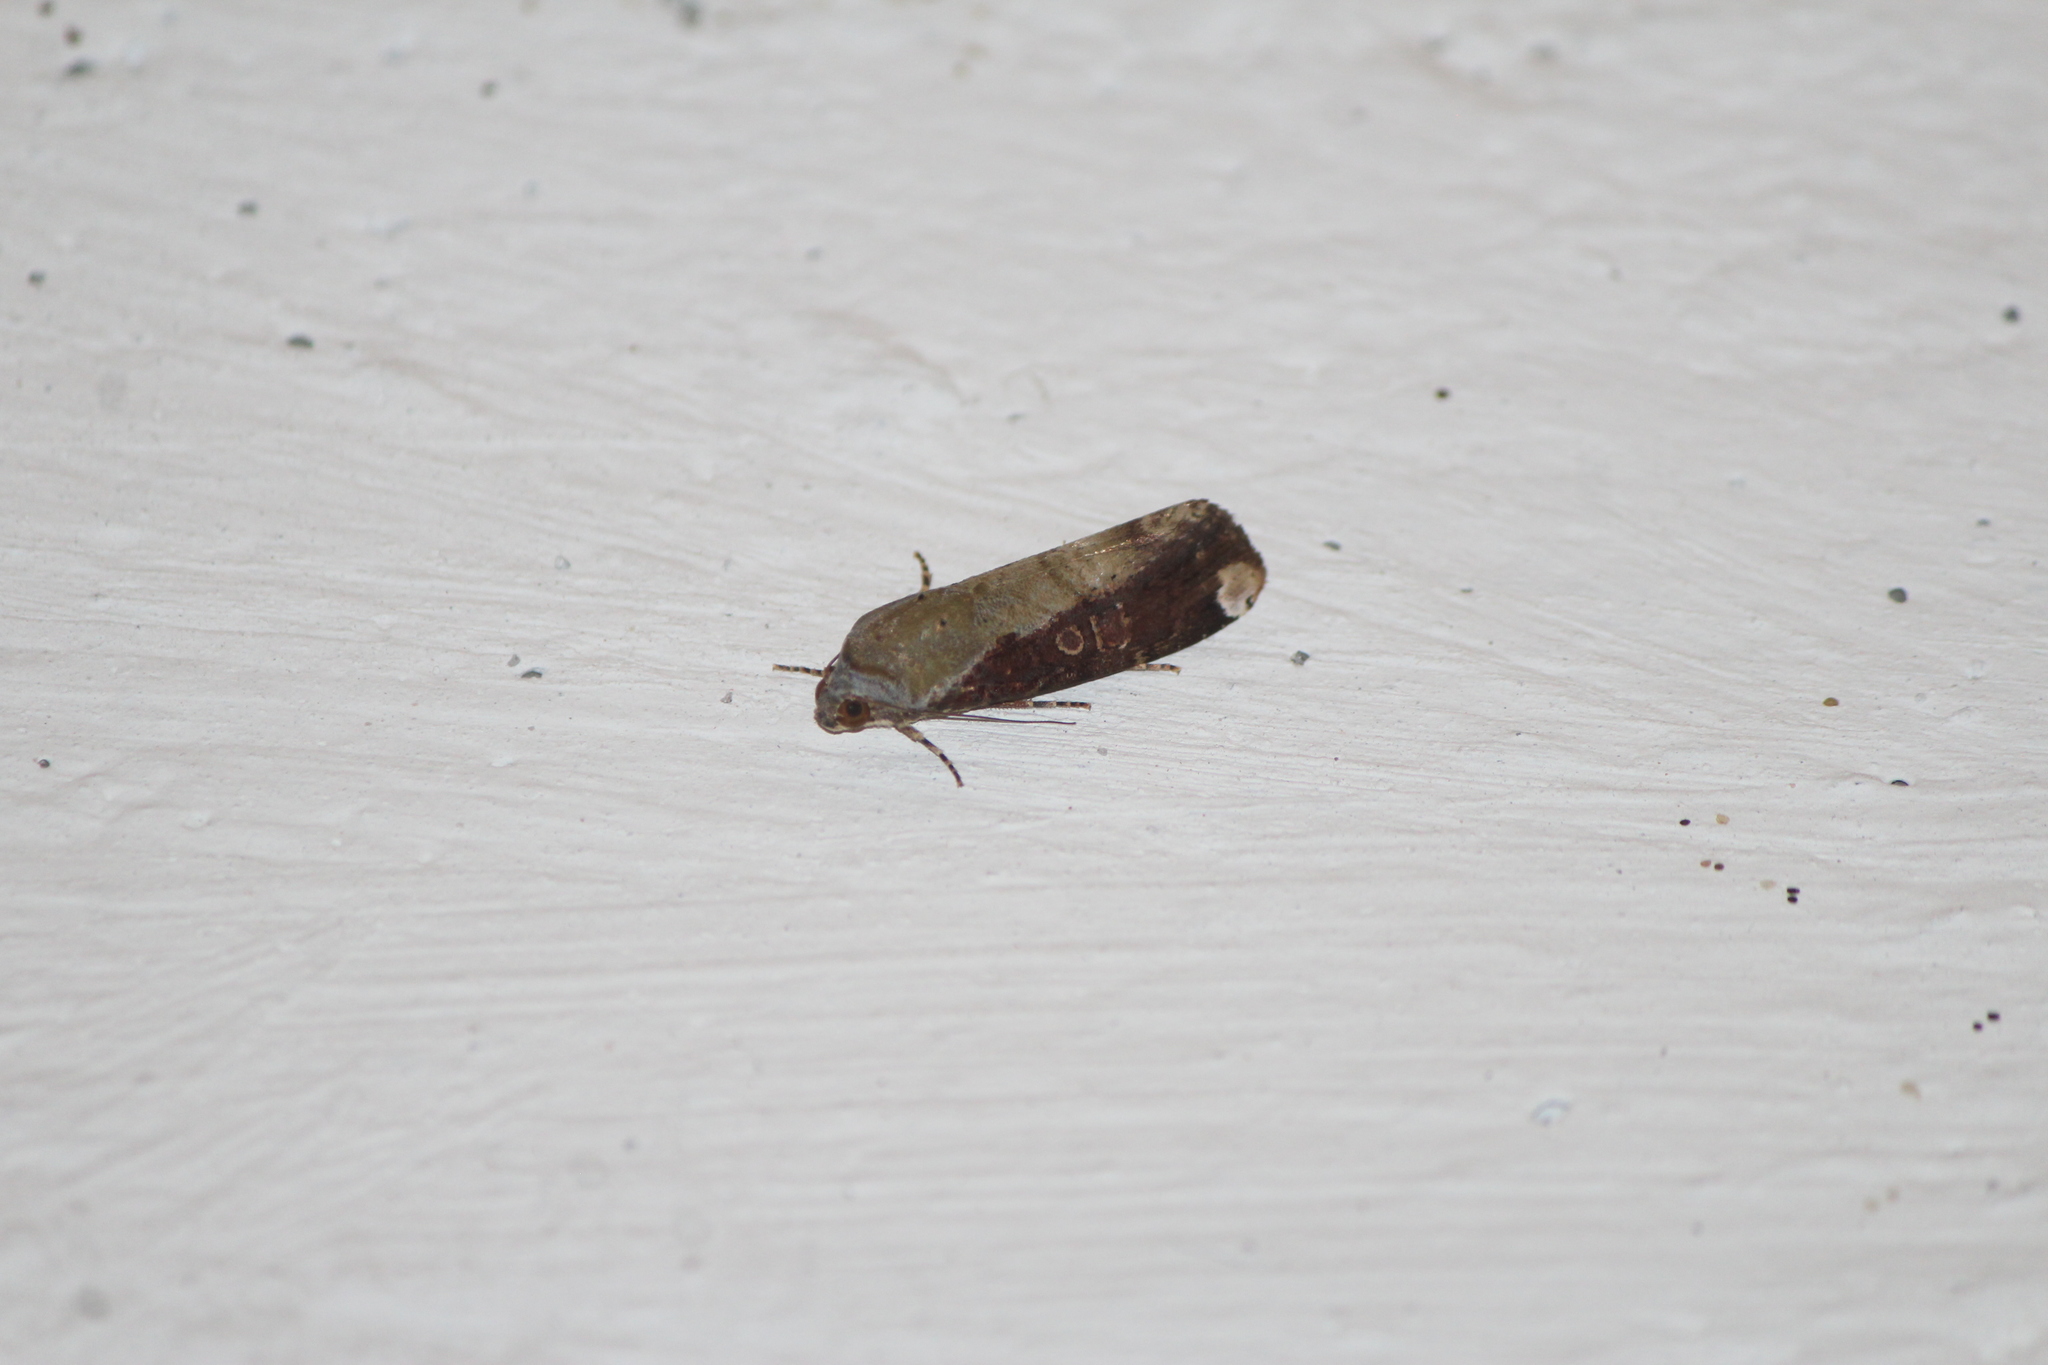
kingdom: Animalia
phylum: Arthropoda
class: Insecta
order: Lepidoptera
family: Noctuidae
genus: Magusa
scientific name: Magusa divaricata
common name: Orb narrow-winged moth
